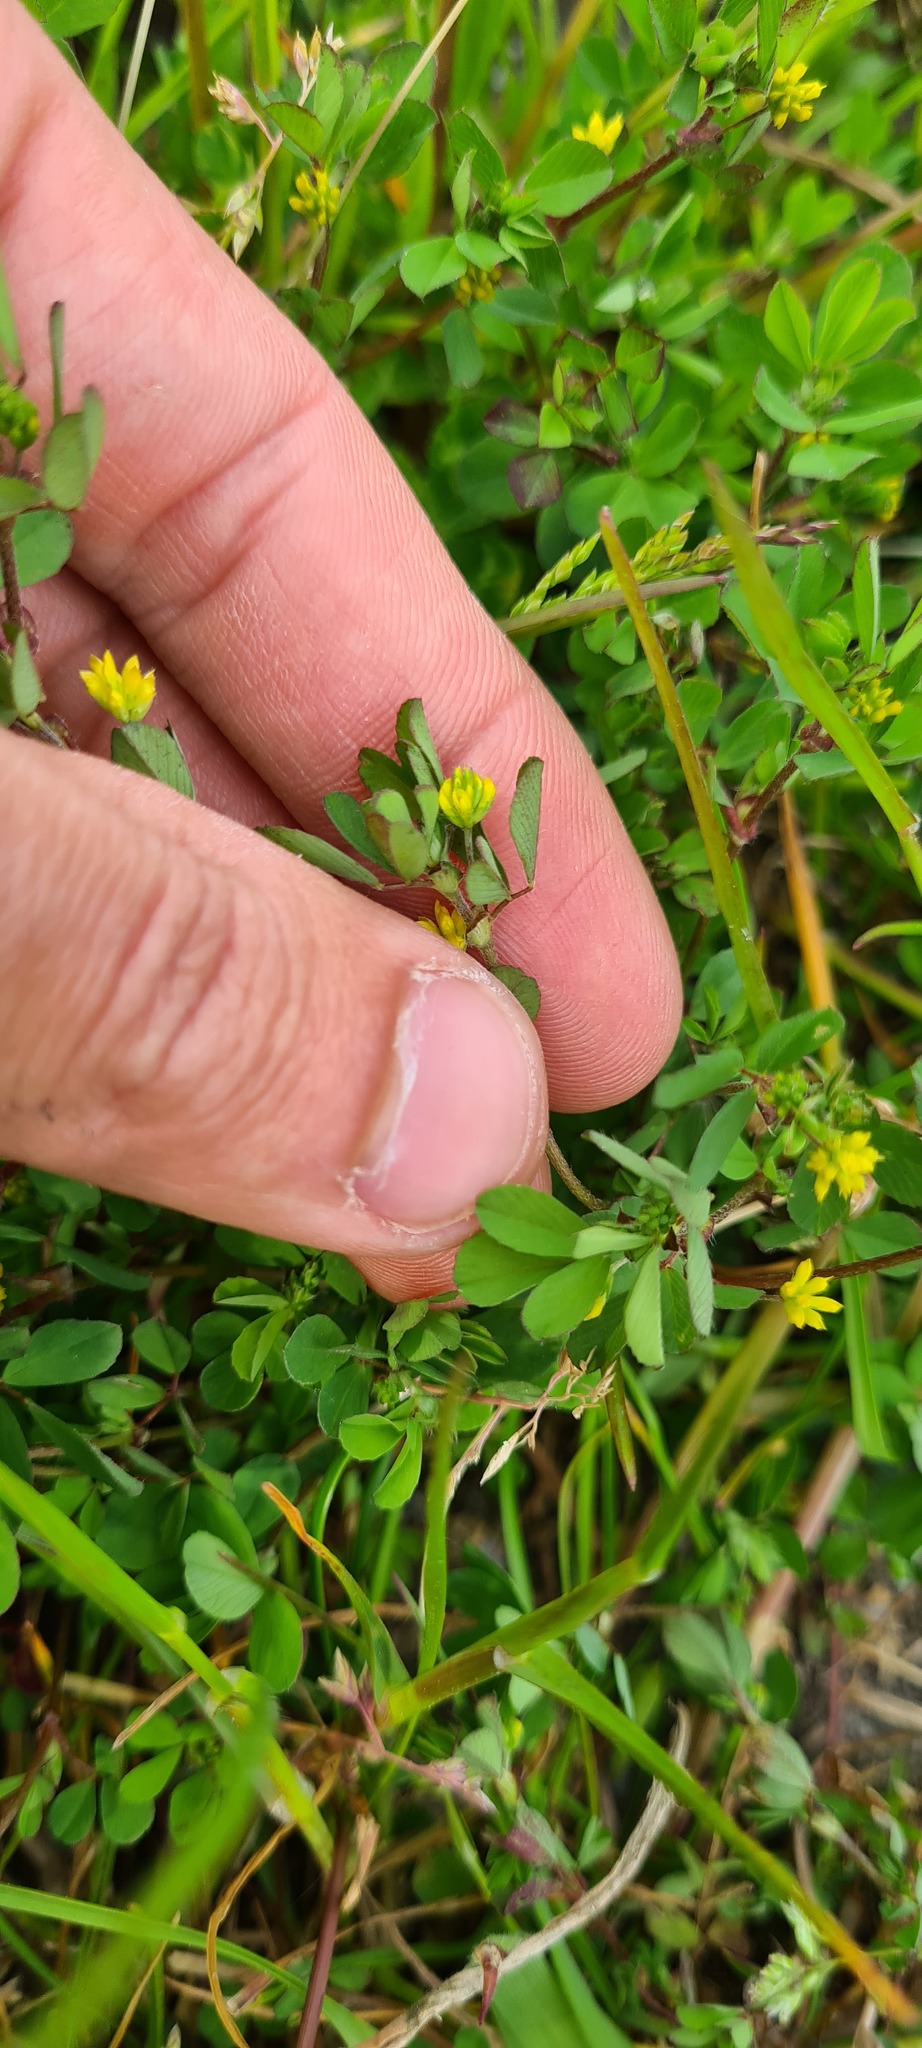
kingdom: Plantae
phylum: Tracheophyta
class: Magnoliopsida
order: Fabales
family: Fabaceae
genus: Trifolium
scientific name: Trifolium dubium
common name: Suckling clover
